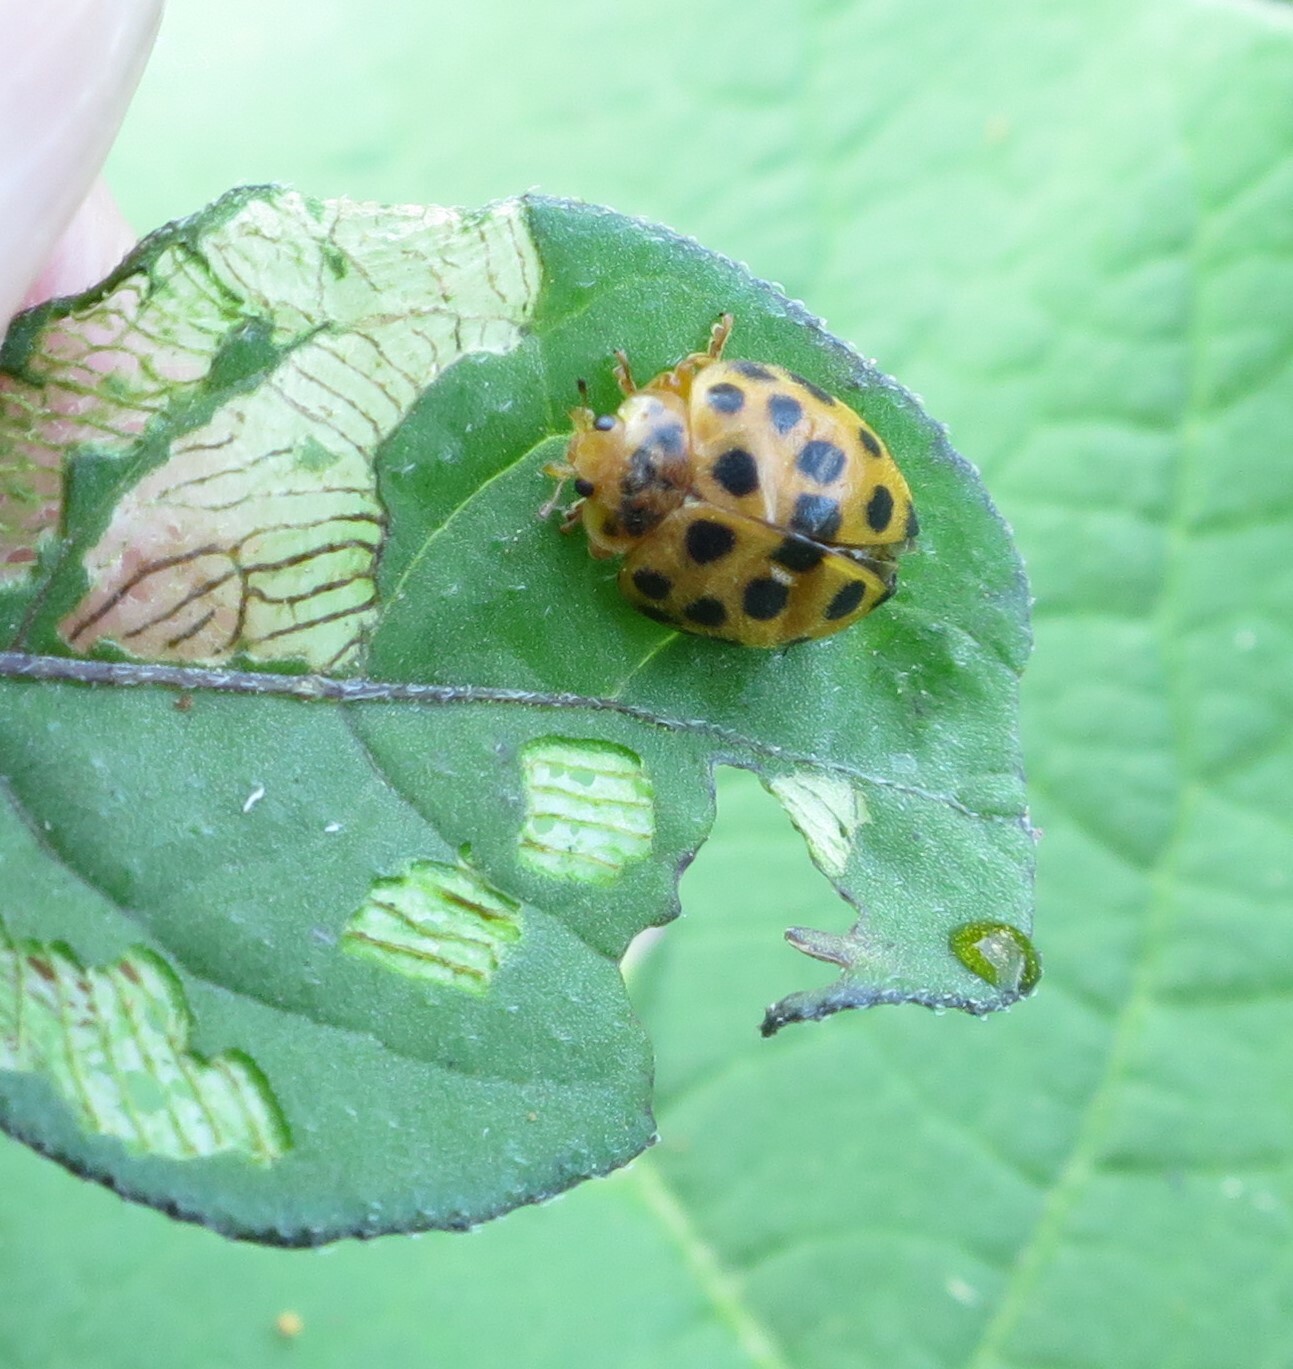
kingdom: Animalia
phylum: Arthropoda
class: Insecta
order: Coleoptera
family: Coccinellidae
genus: Henosepilachna
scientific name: Henosepilachna vigintioctopunctata
